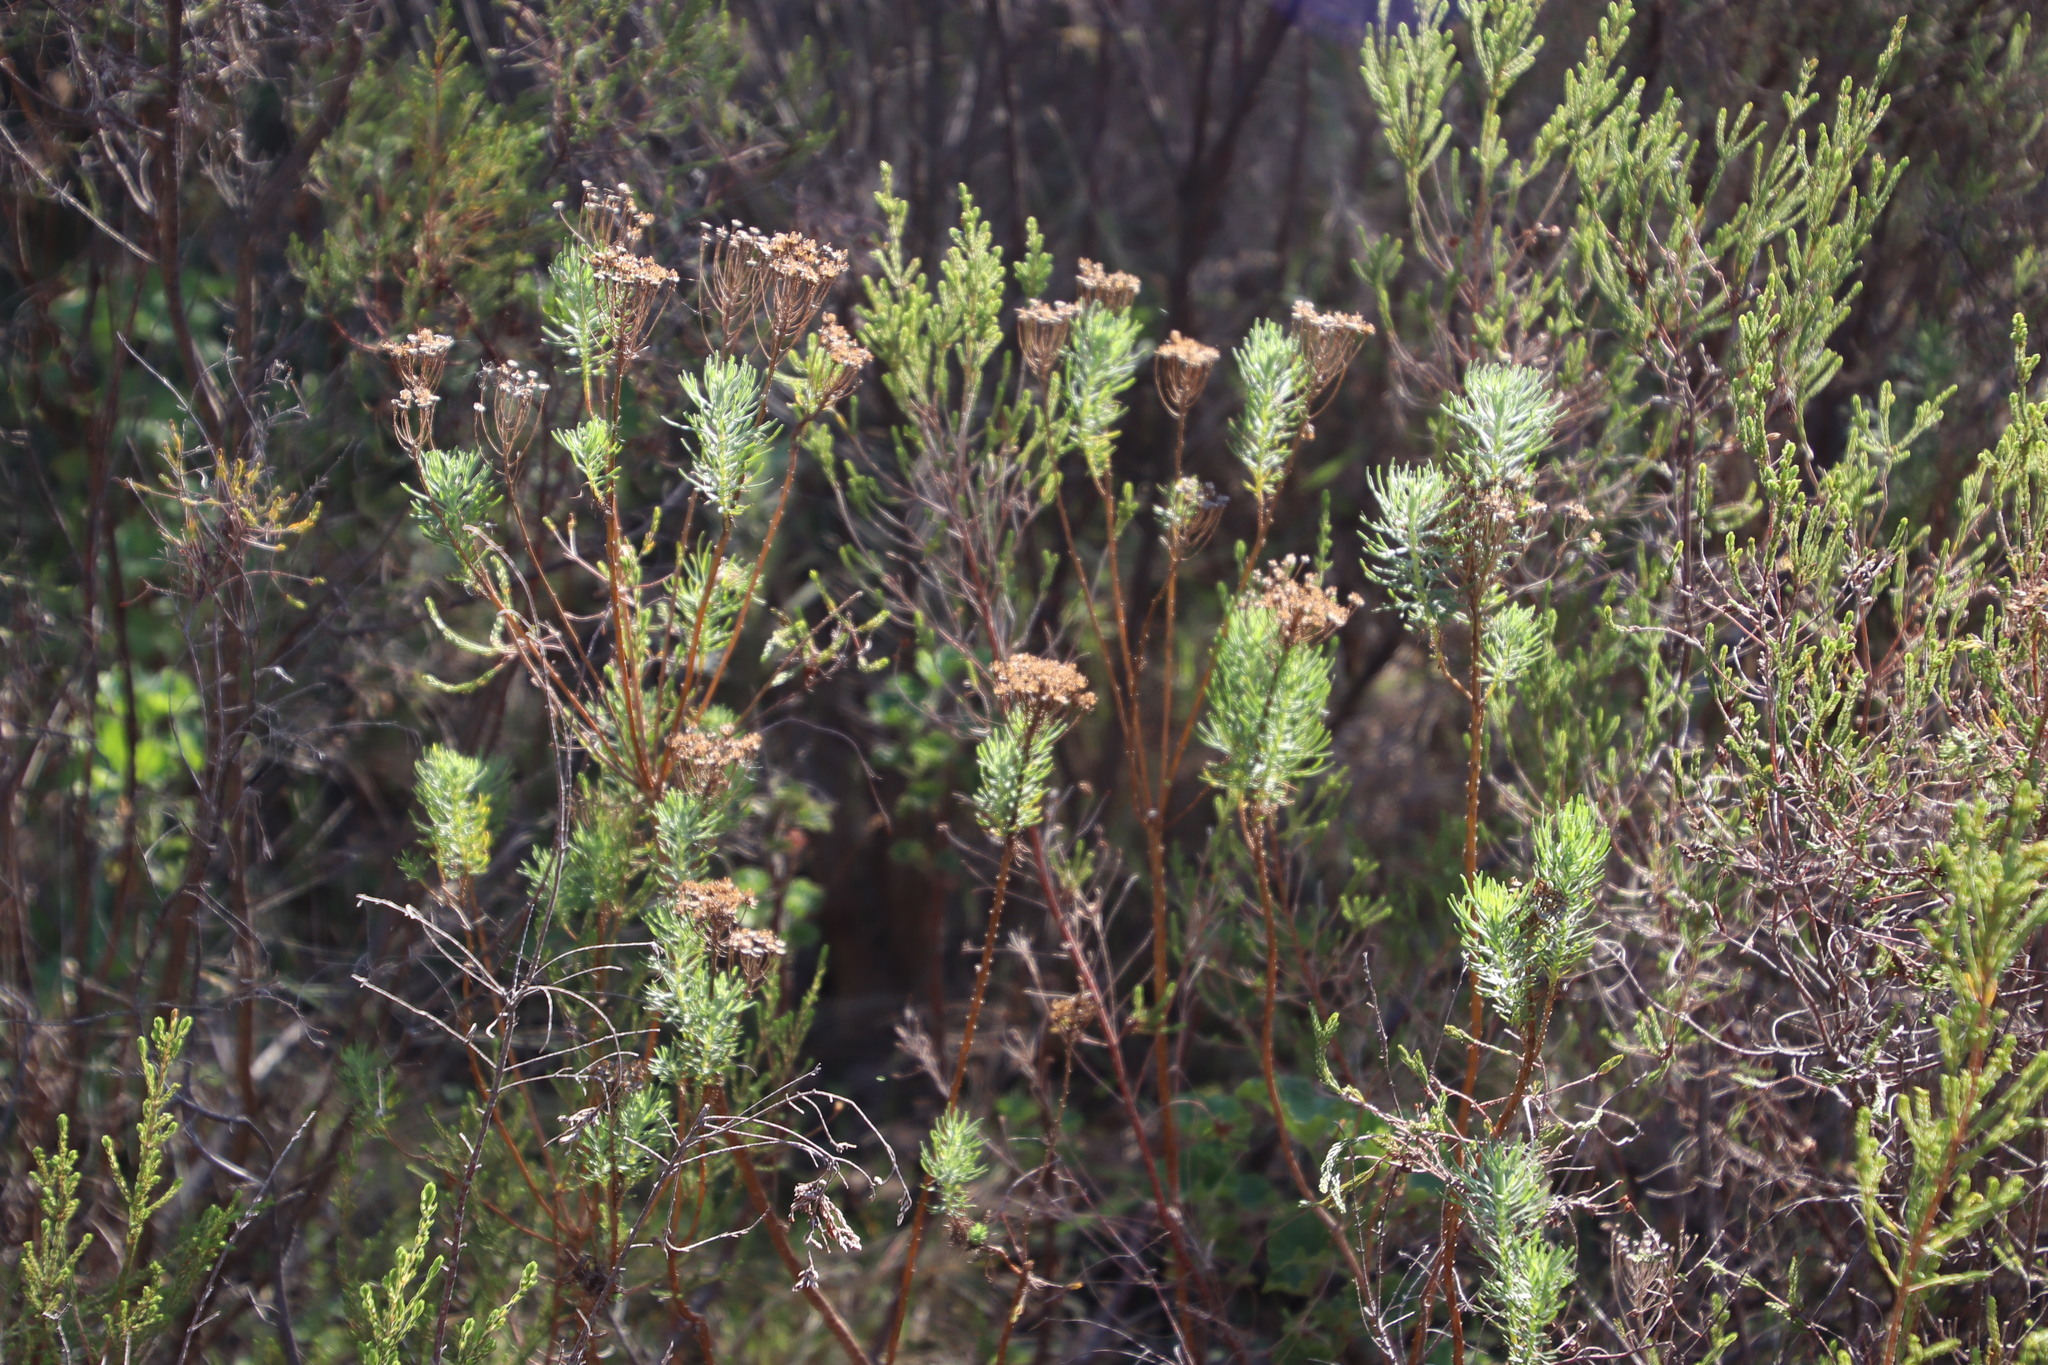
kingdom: Plantae
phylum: Tracheophyta
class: Magnoliopsida
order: Asterales
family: Asteraceae
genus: Athanasia
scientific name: Athanasia crithmifolia
